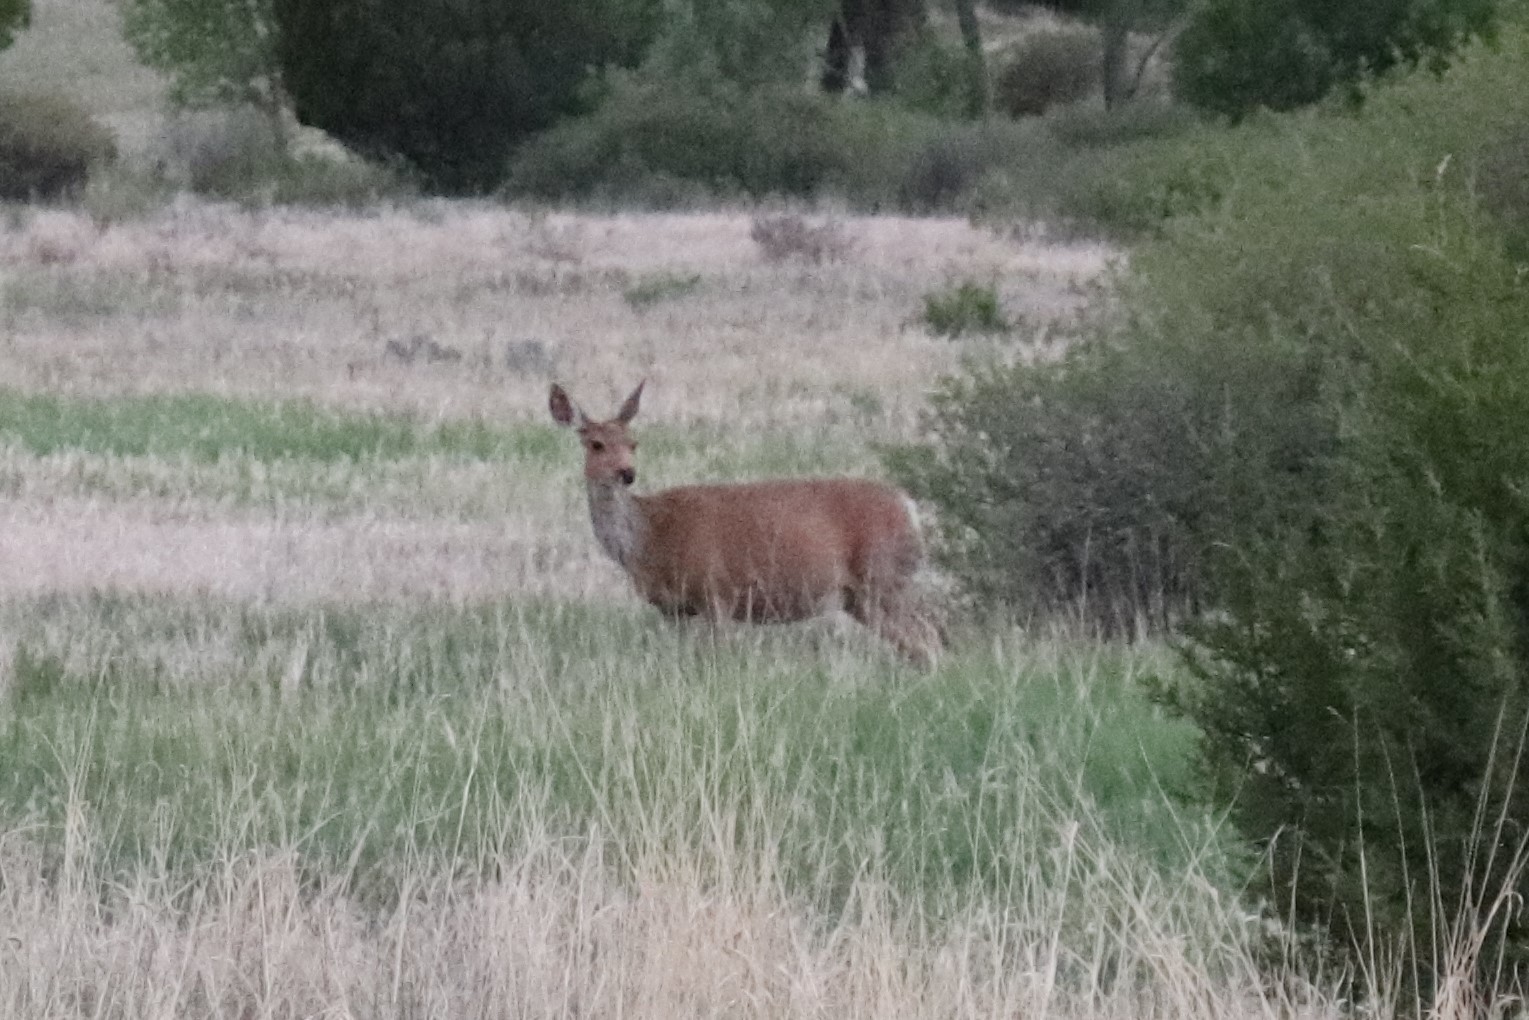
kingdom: Animalia
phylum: Chordata
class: Mammalia
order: Artiodactyla
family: Cervidae
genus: Odocoileus
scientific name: Odocoileus hemionus
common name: Mule deer
